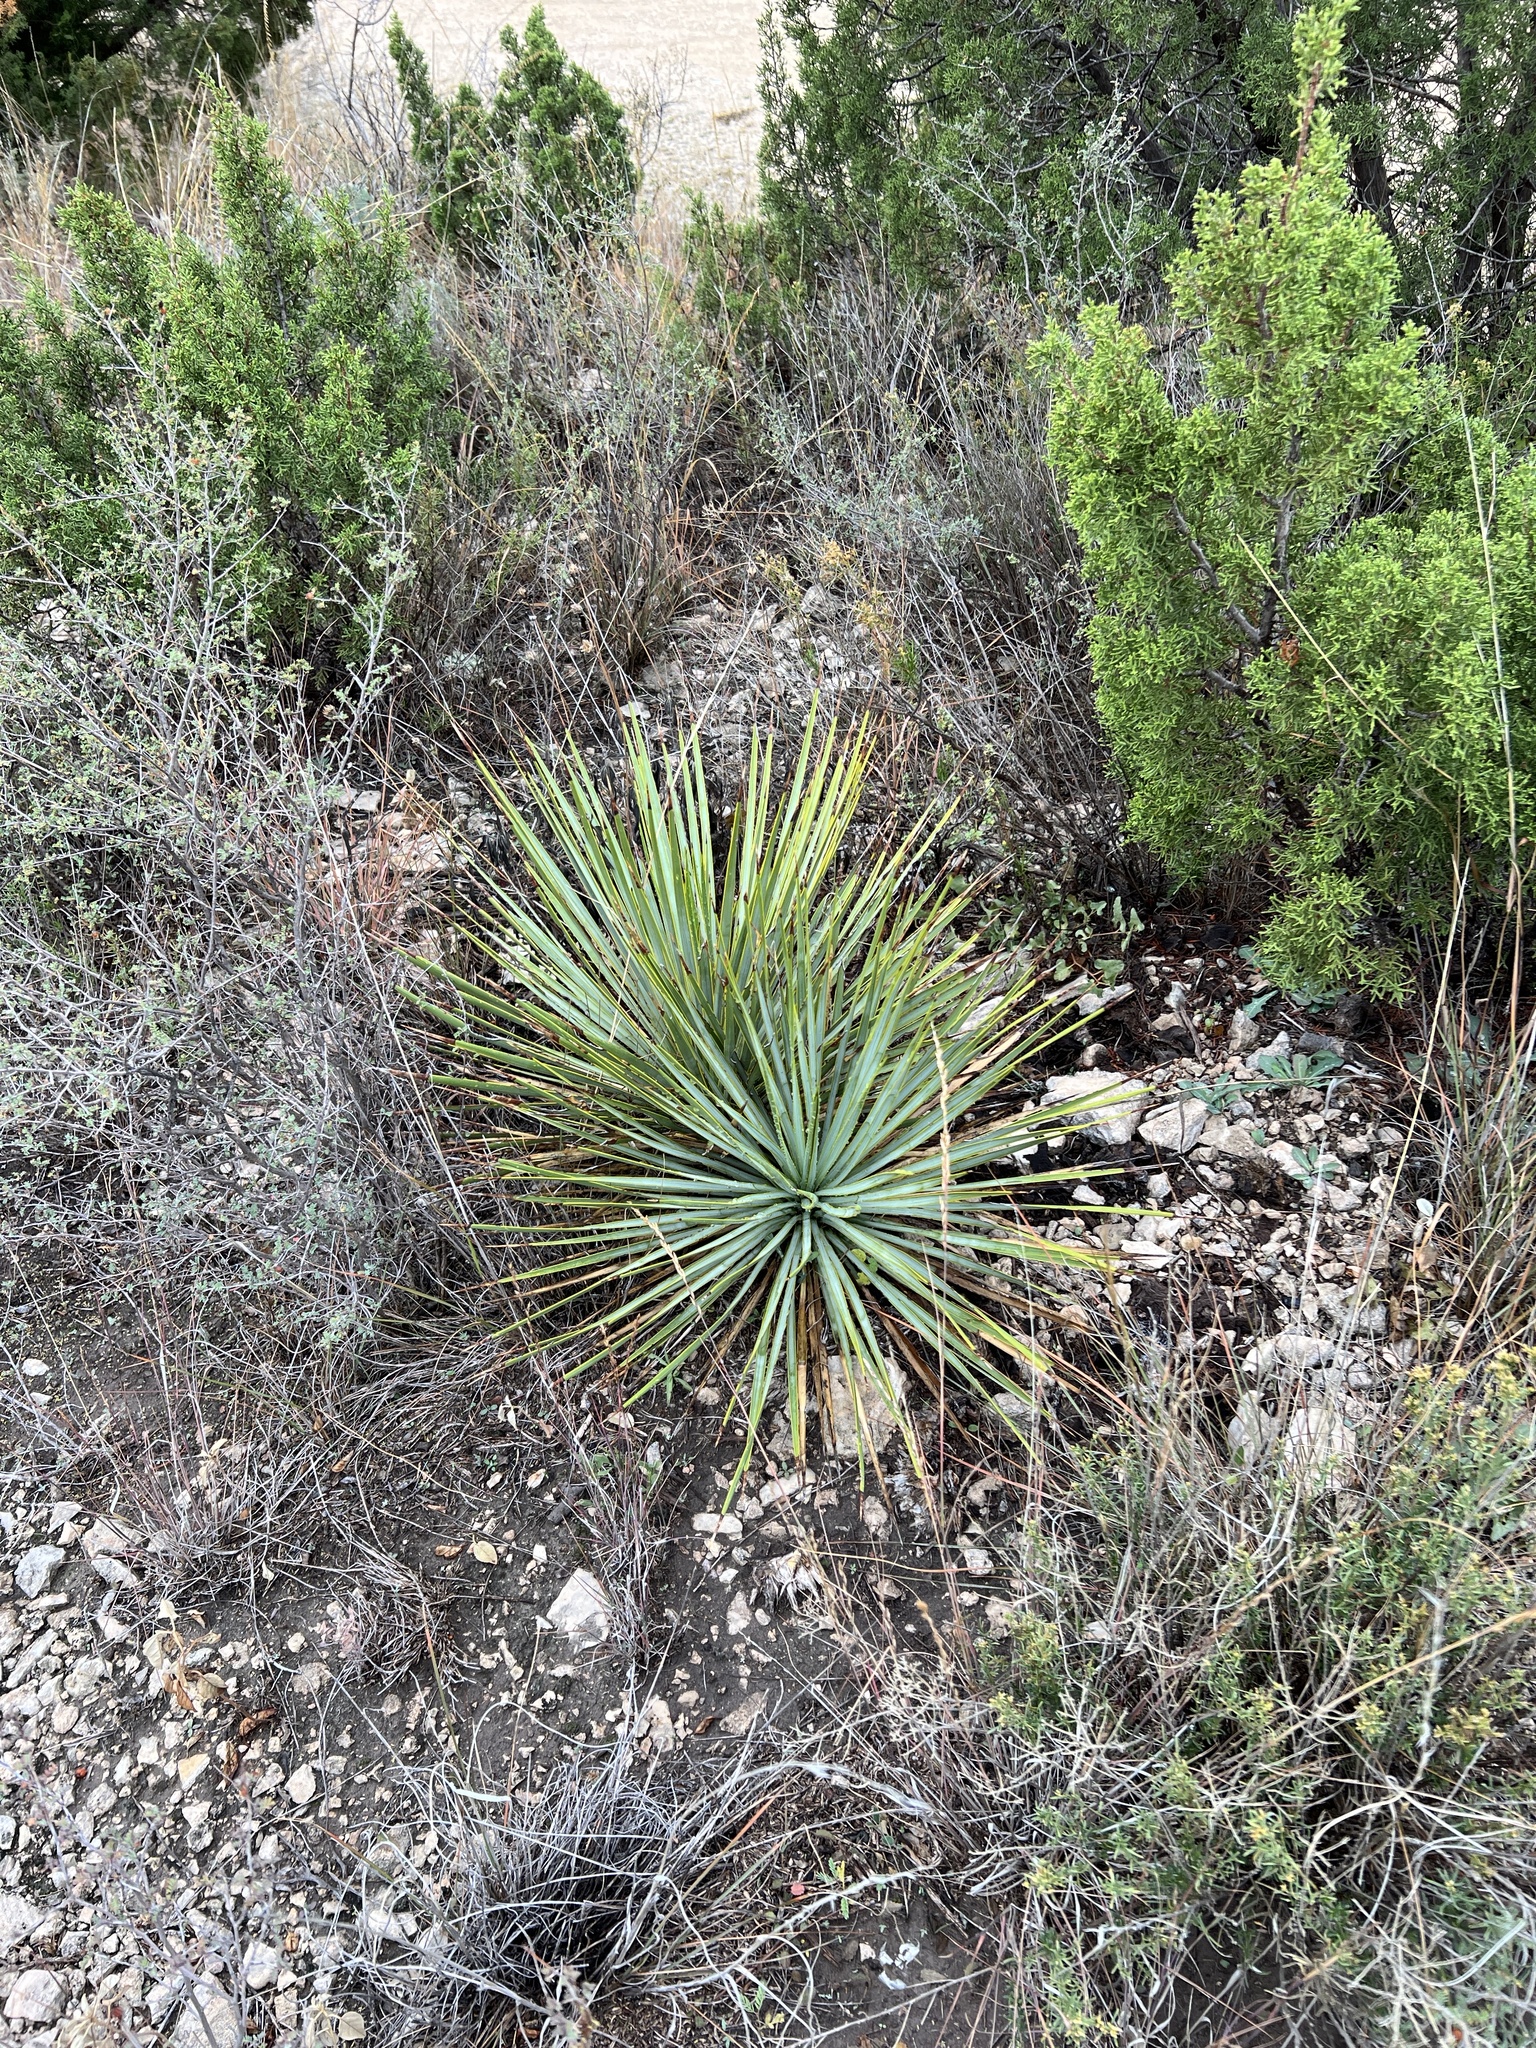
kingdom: Plantae
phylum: Tracheophyta
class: Liliopsida
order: Asparagales
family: Asparagaceae
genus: Yucca
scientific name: Yucca reverchonii
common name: San angelo yucca
